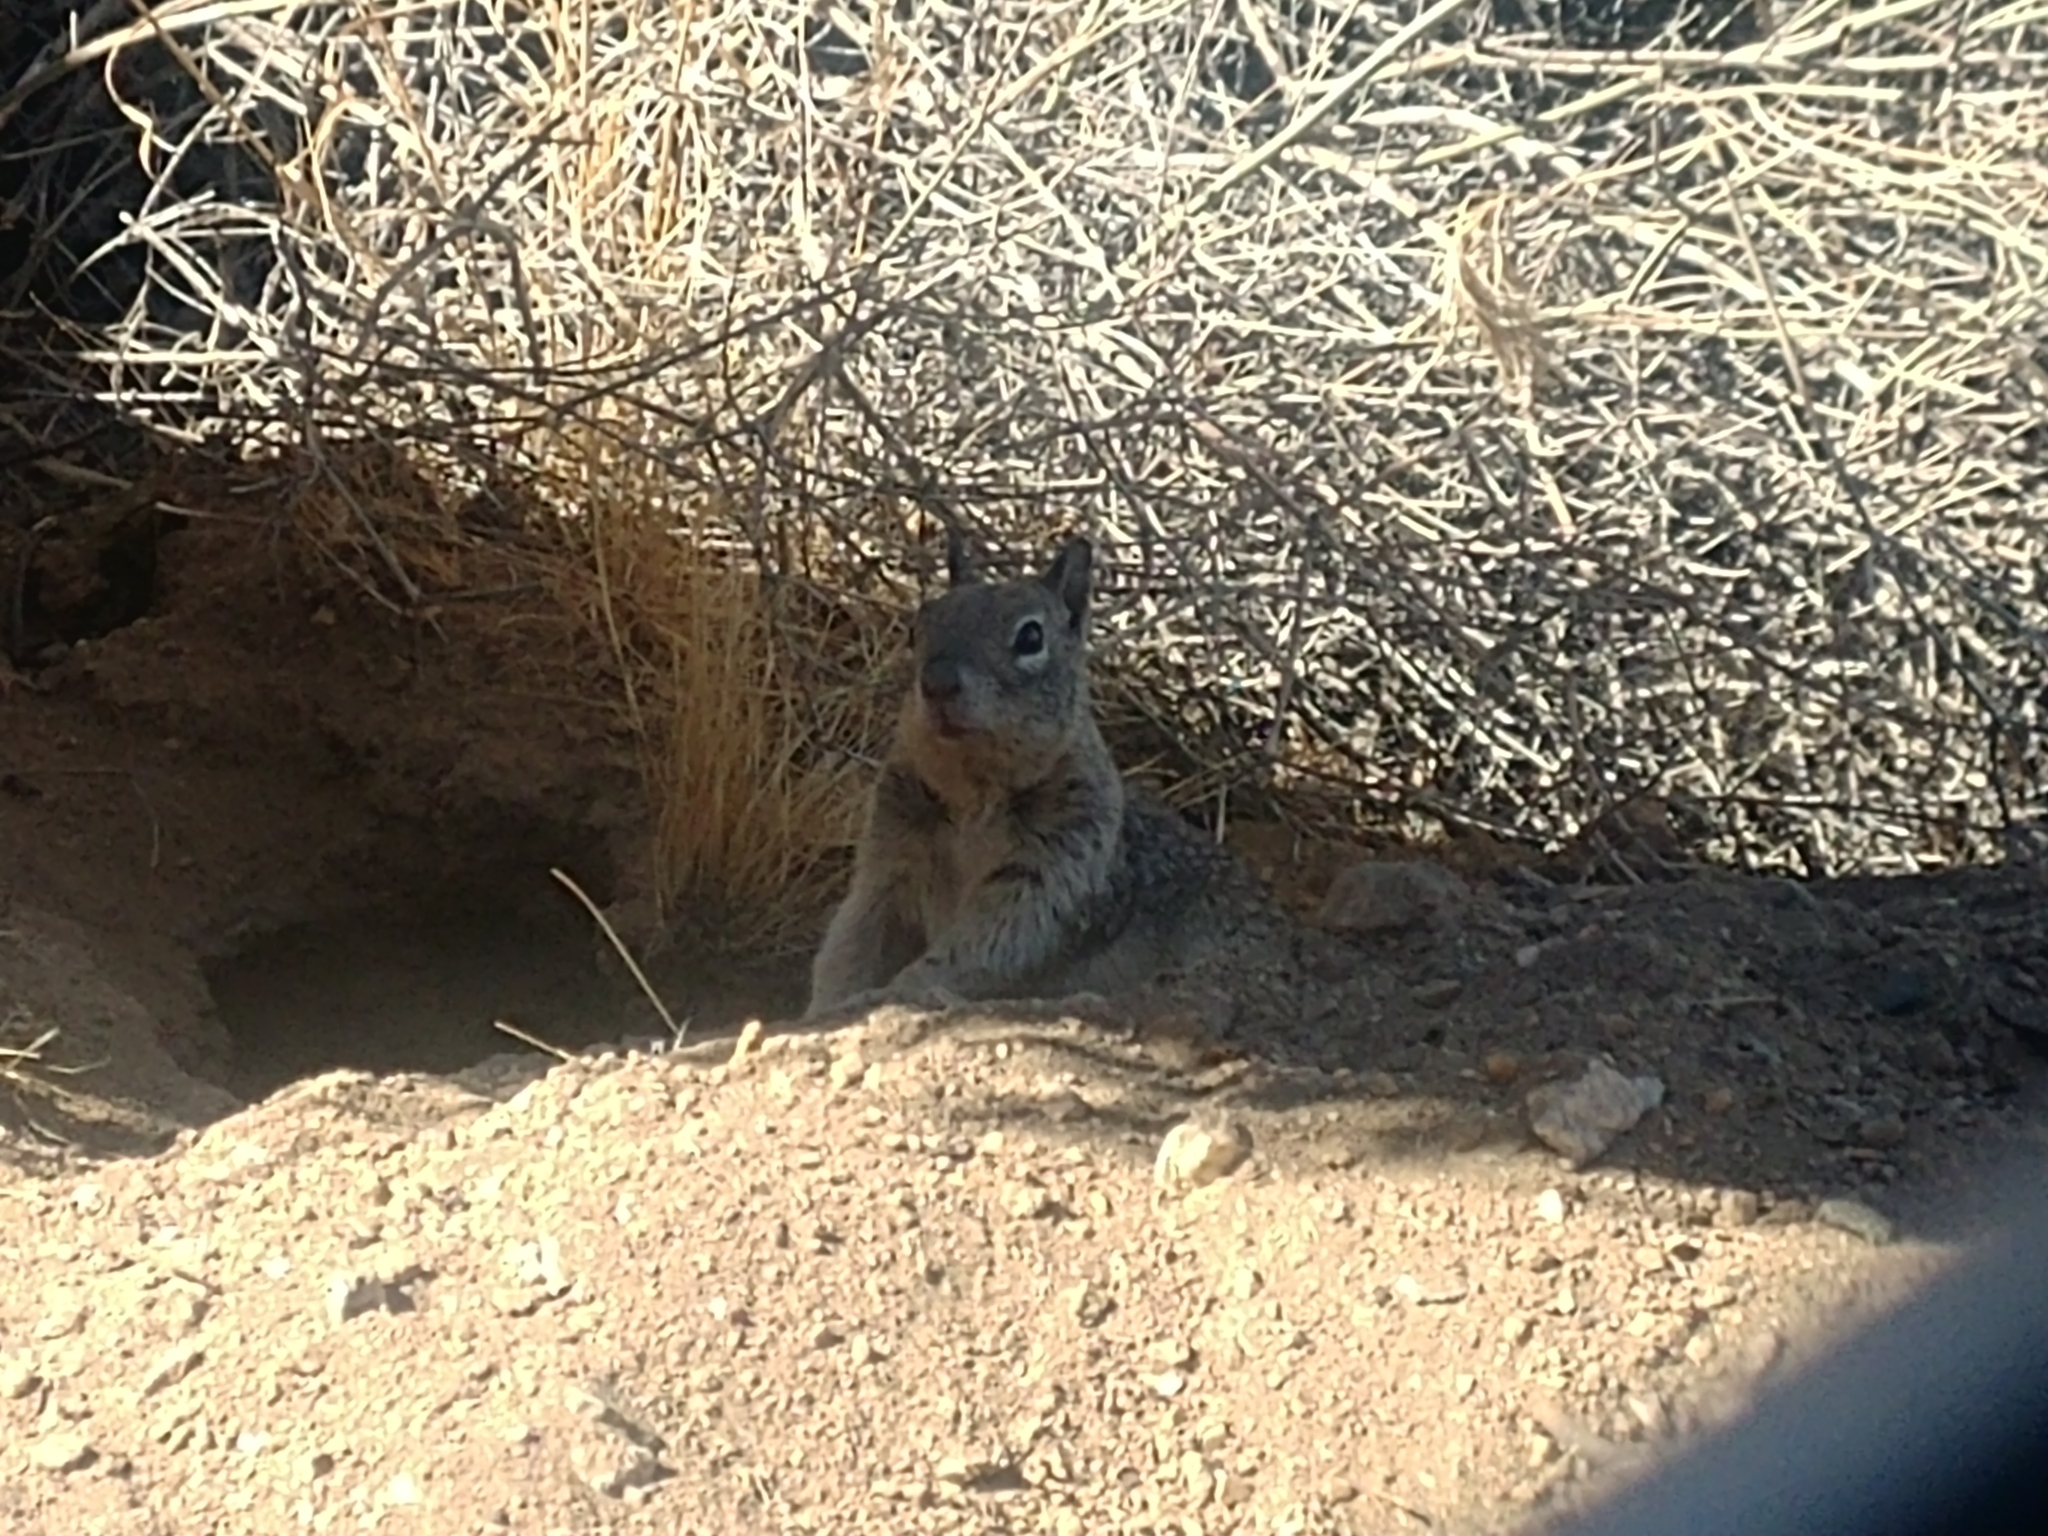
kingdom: Animalia
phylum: Chordata
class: Mammalia
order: Rodentia
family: Sciuridae
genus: Otospermophilus
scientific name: Otospermophilus beecheyi
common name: California ground squirrel
